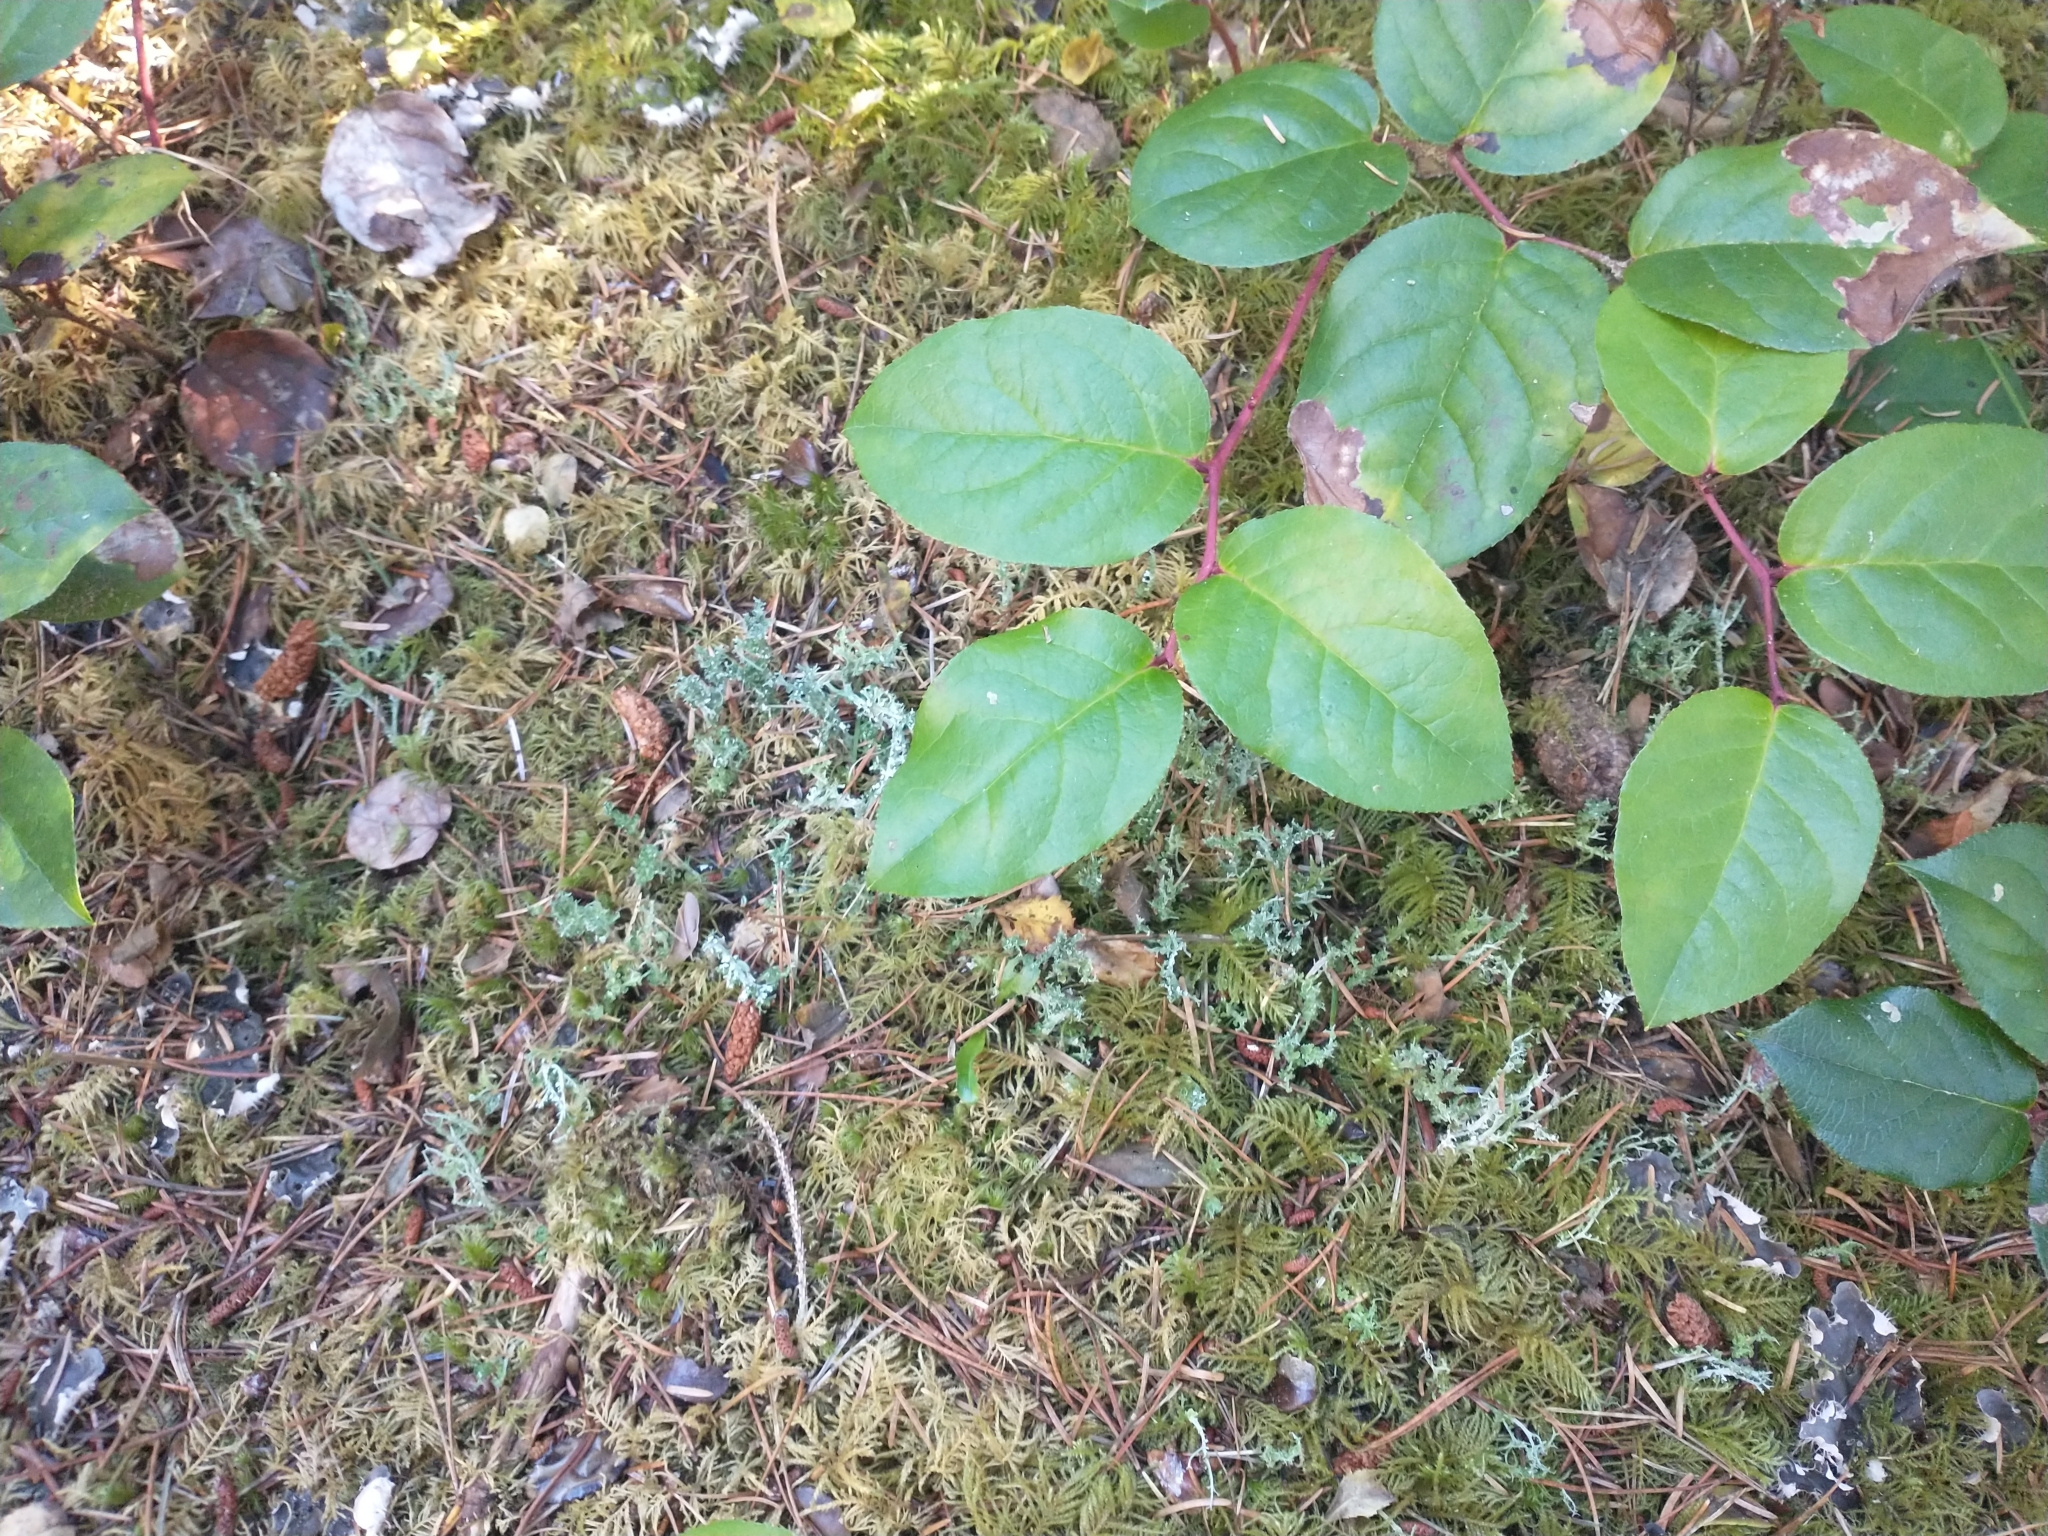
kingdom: Plantae
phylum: Tracheophyta
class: Magnoliopsida
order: Ericales
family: Ericaceae
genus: Gaultheria
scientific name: Gaultheria shallon
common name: Shallon
